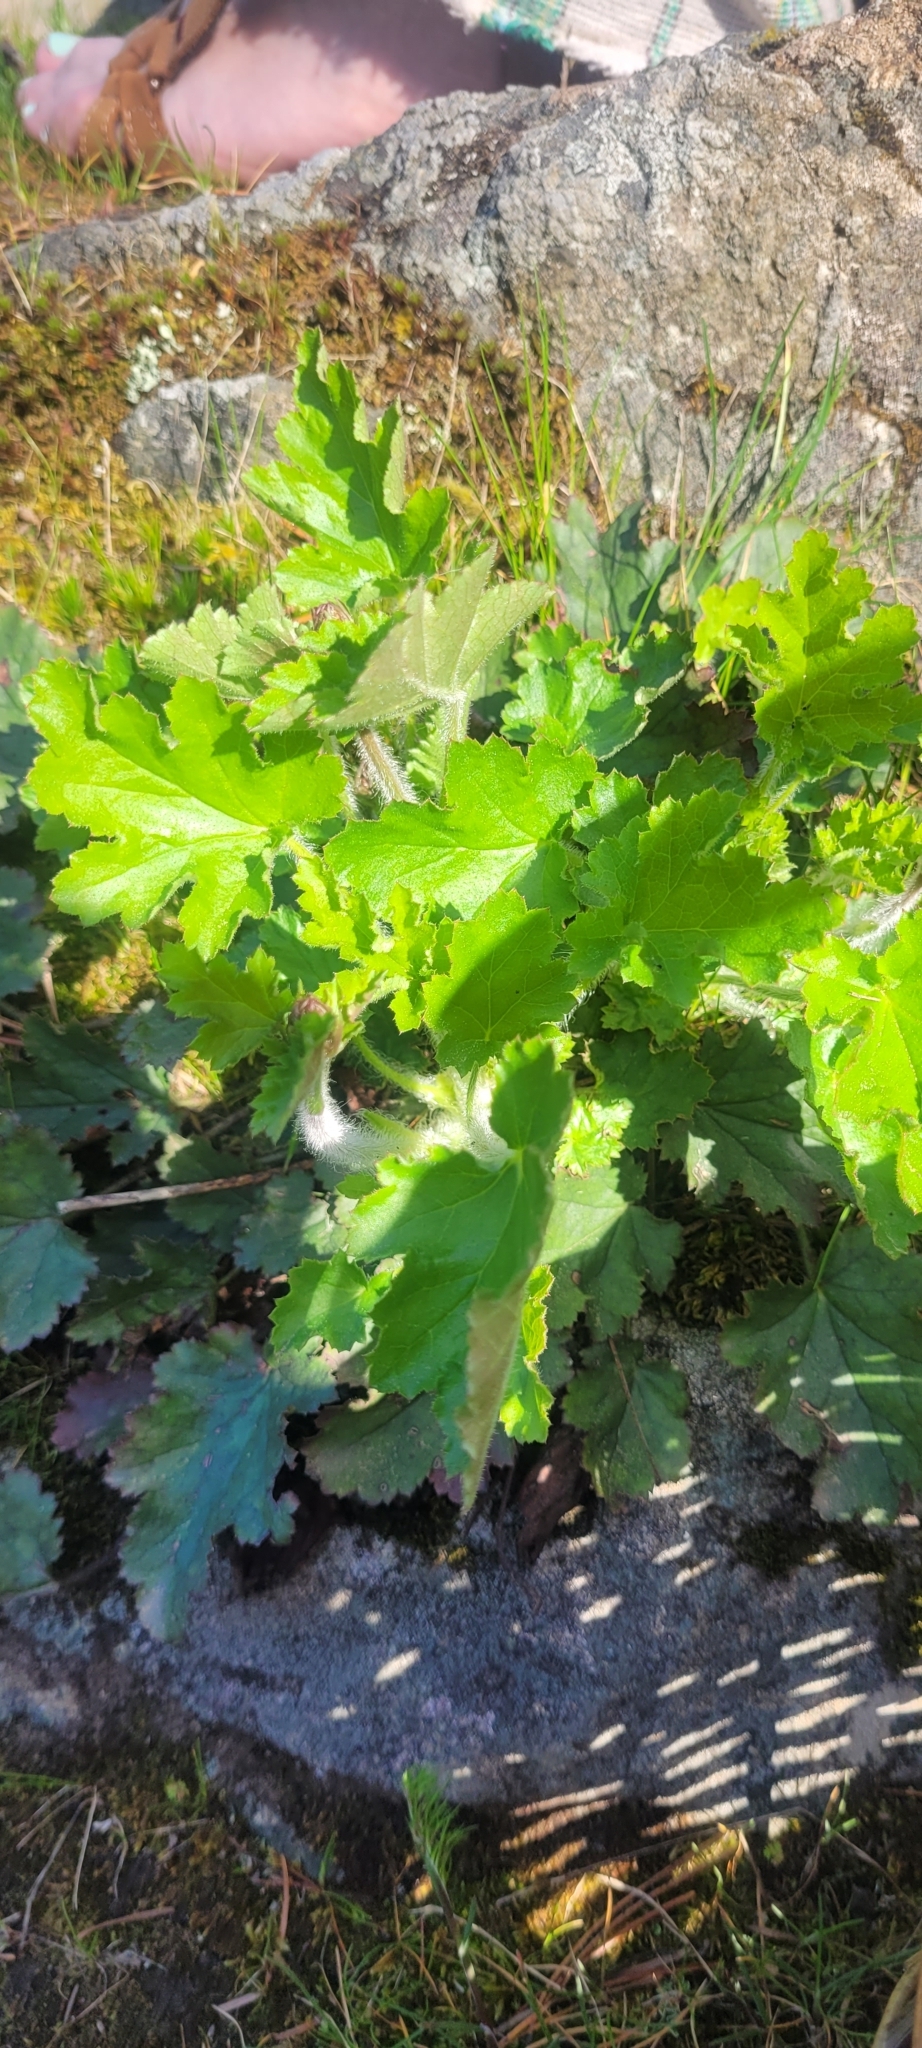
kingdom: Plantae
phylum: Tracheophyta
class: Magnoliopsida
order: Saxifragales
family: Saxifragaceae
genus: Heuchera
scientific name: Heuchera micrantha
